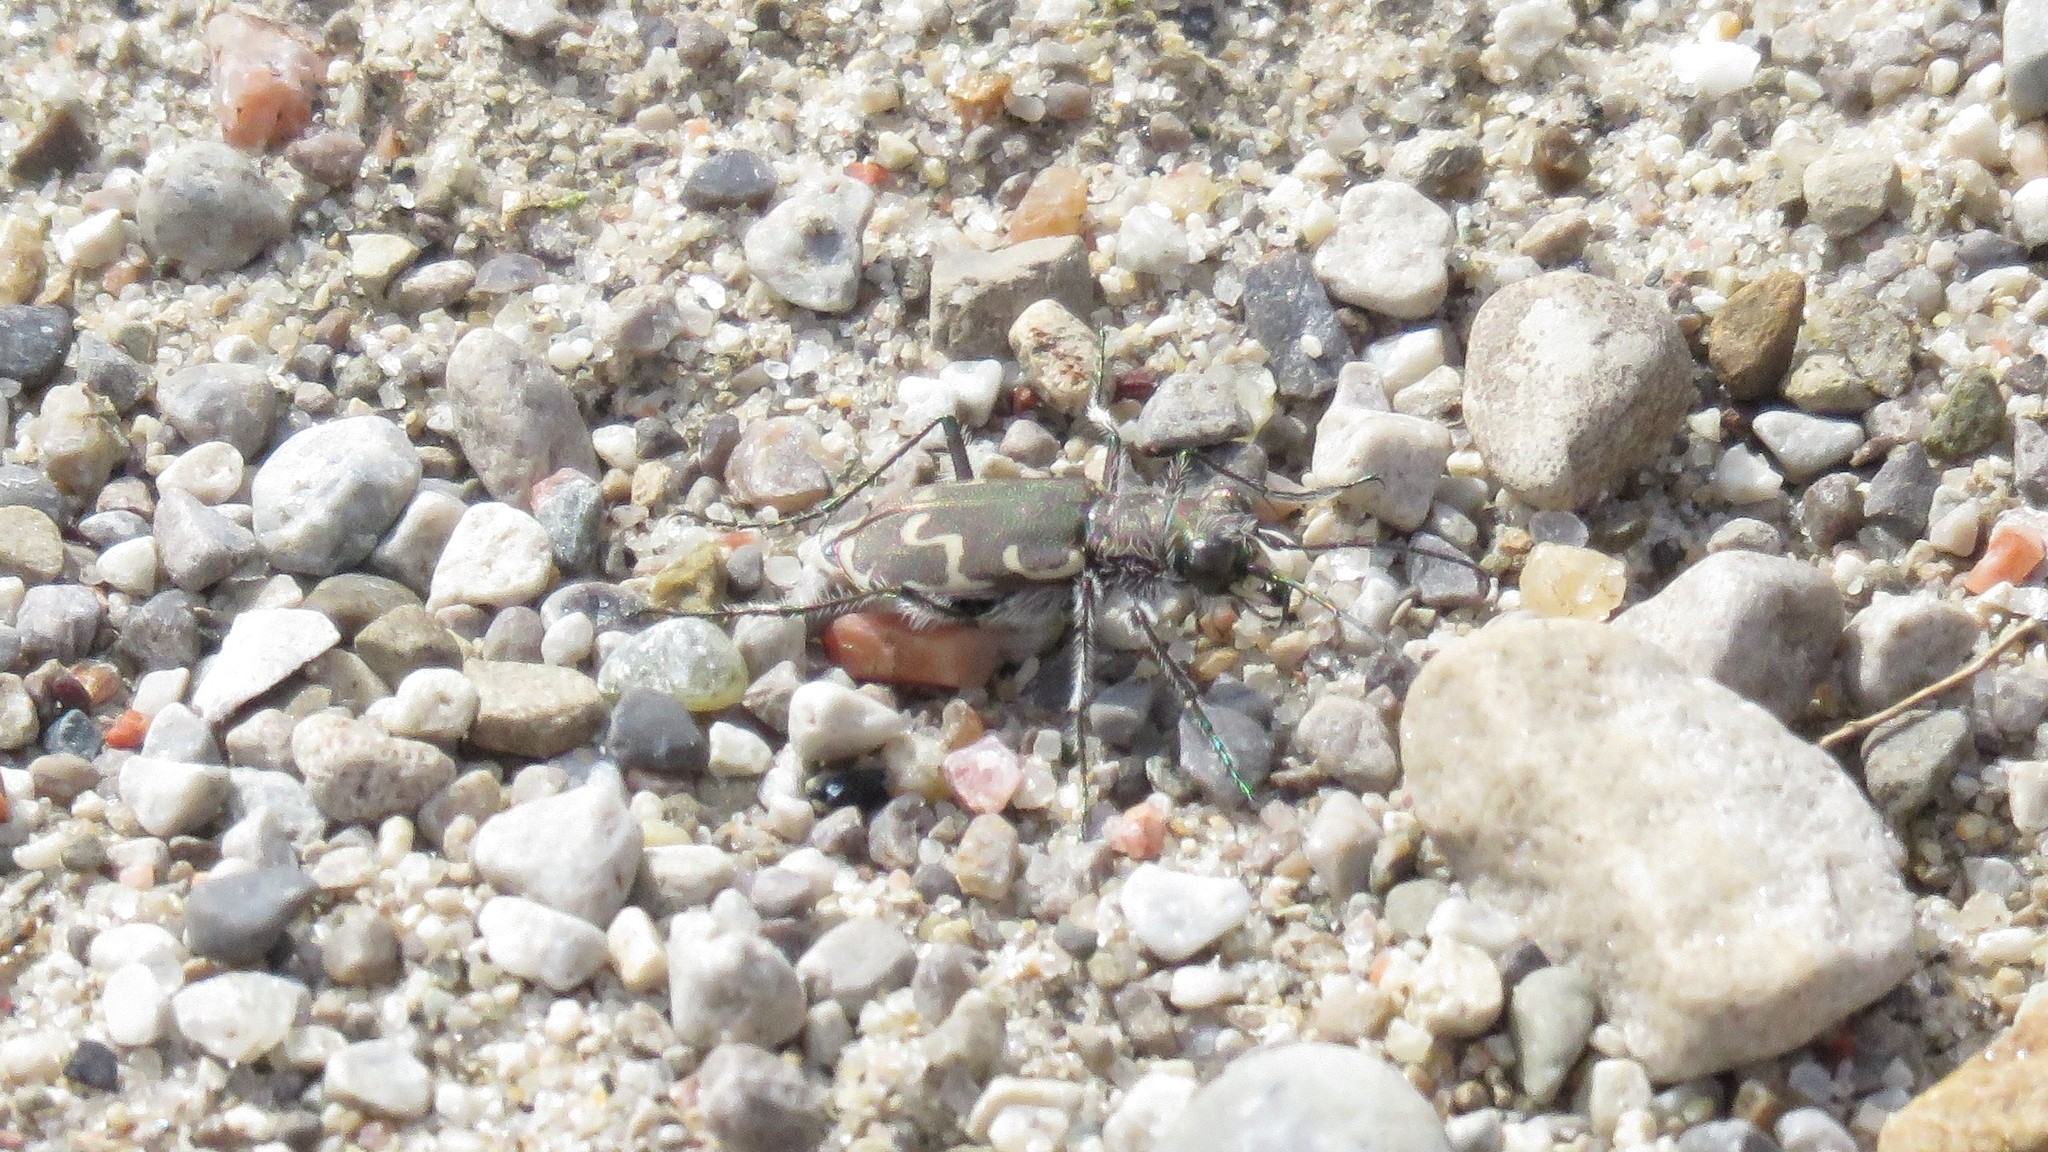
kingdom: Animalia
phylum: Arthropoda
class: Insecta
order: Coleoptera
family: Carabidae
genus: Cicindela
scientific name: Cicindela repanda
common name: Bronzed tiger beetle
